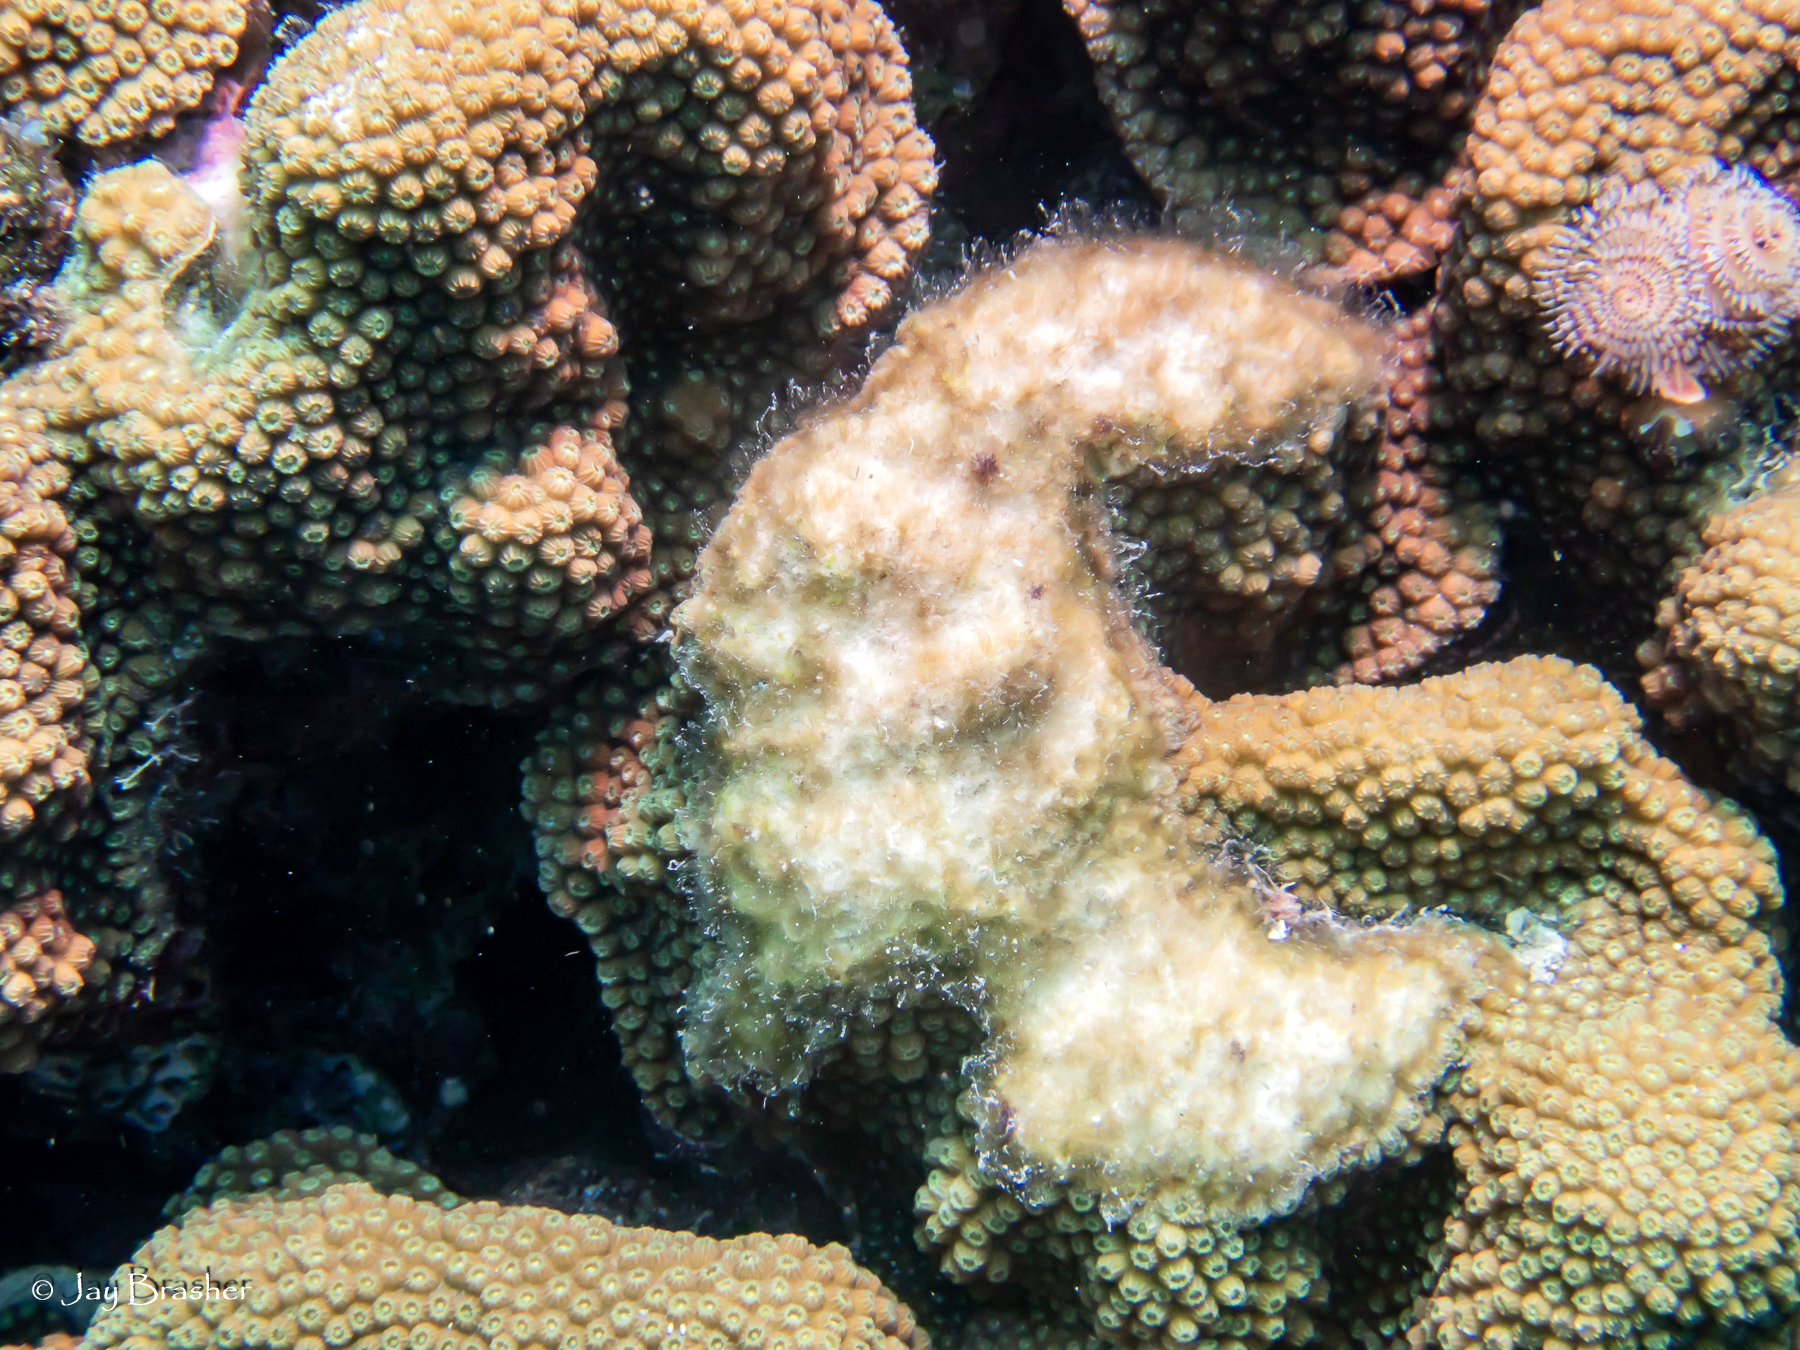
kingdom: Animalia
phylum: Annelida
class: Polychaeta
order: Sabellida
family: Serpulidae
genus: Spirobranchus
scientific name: Spirobranchus giganteus
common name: Christmas tree worm
